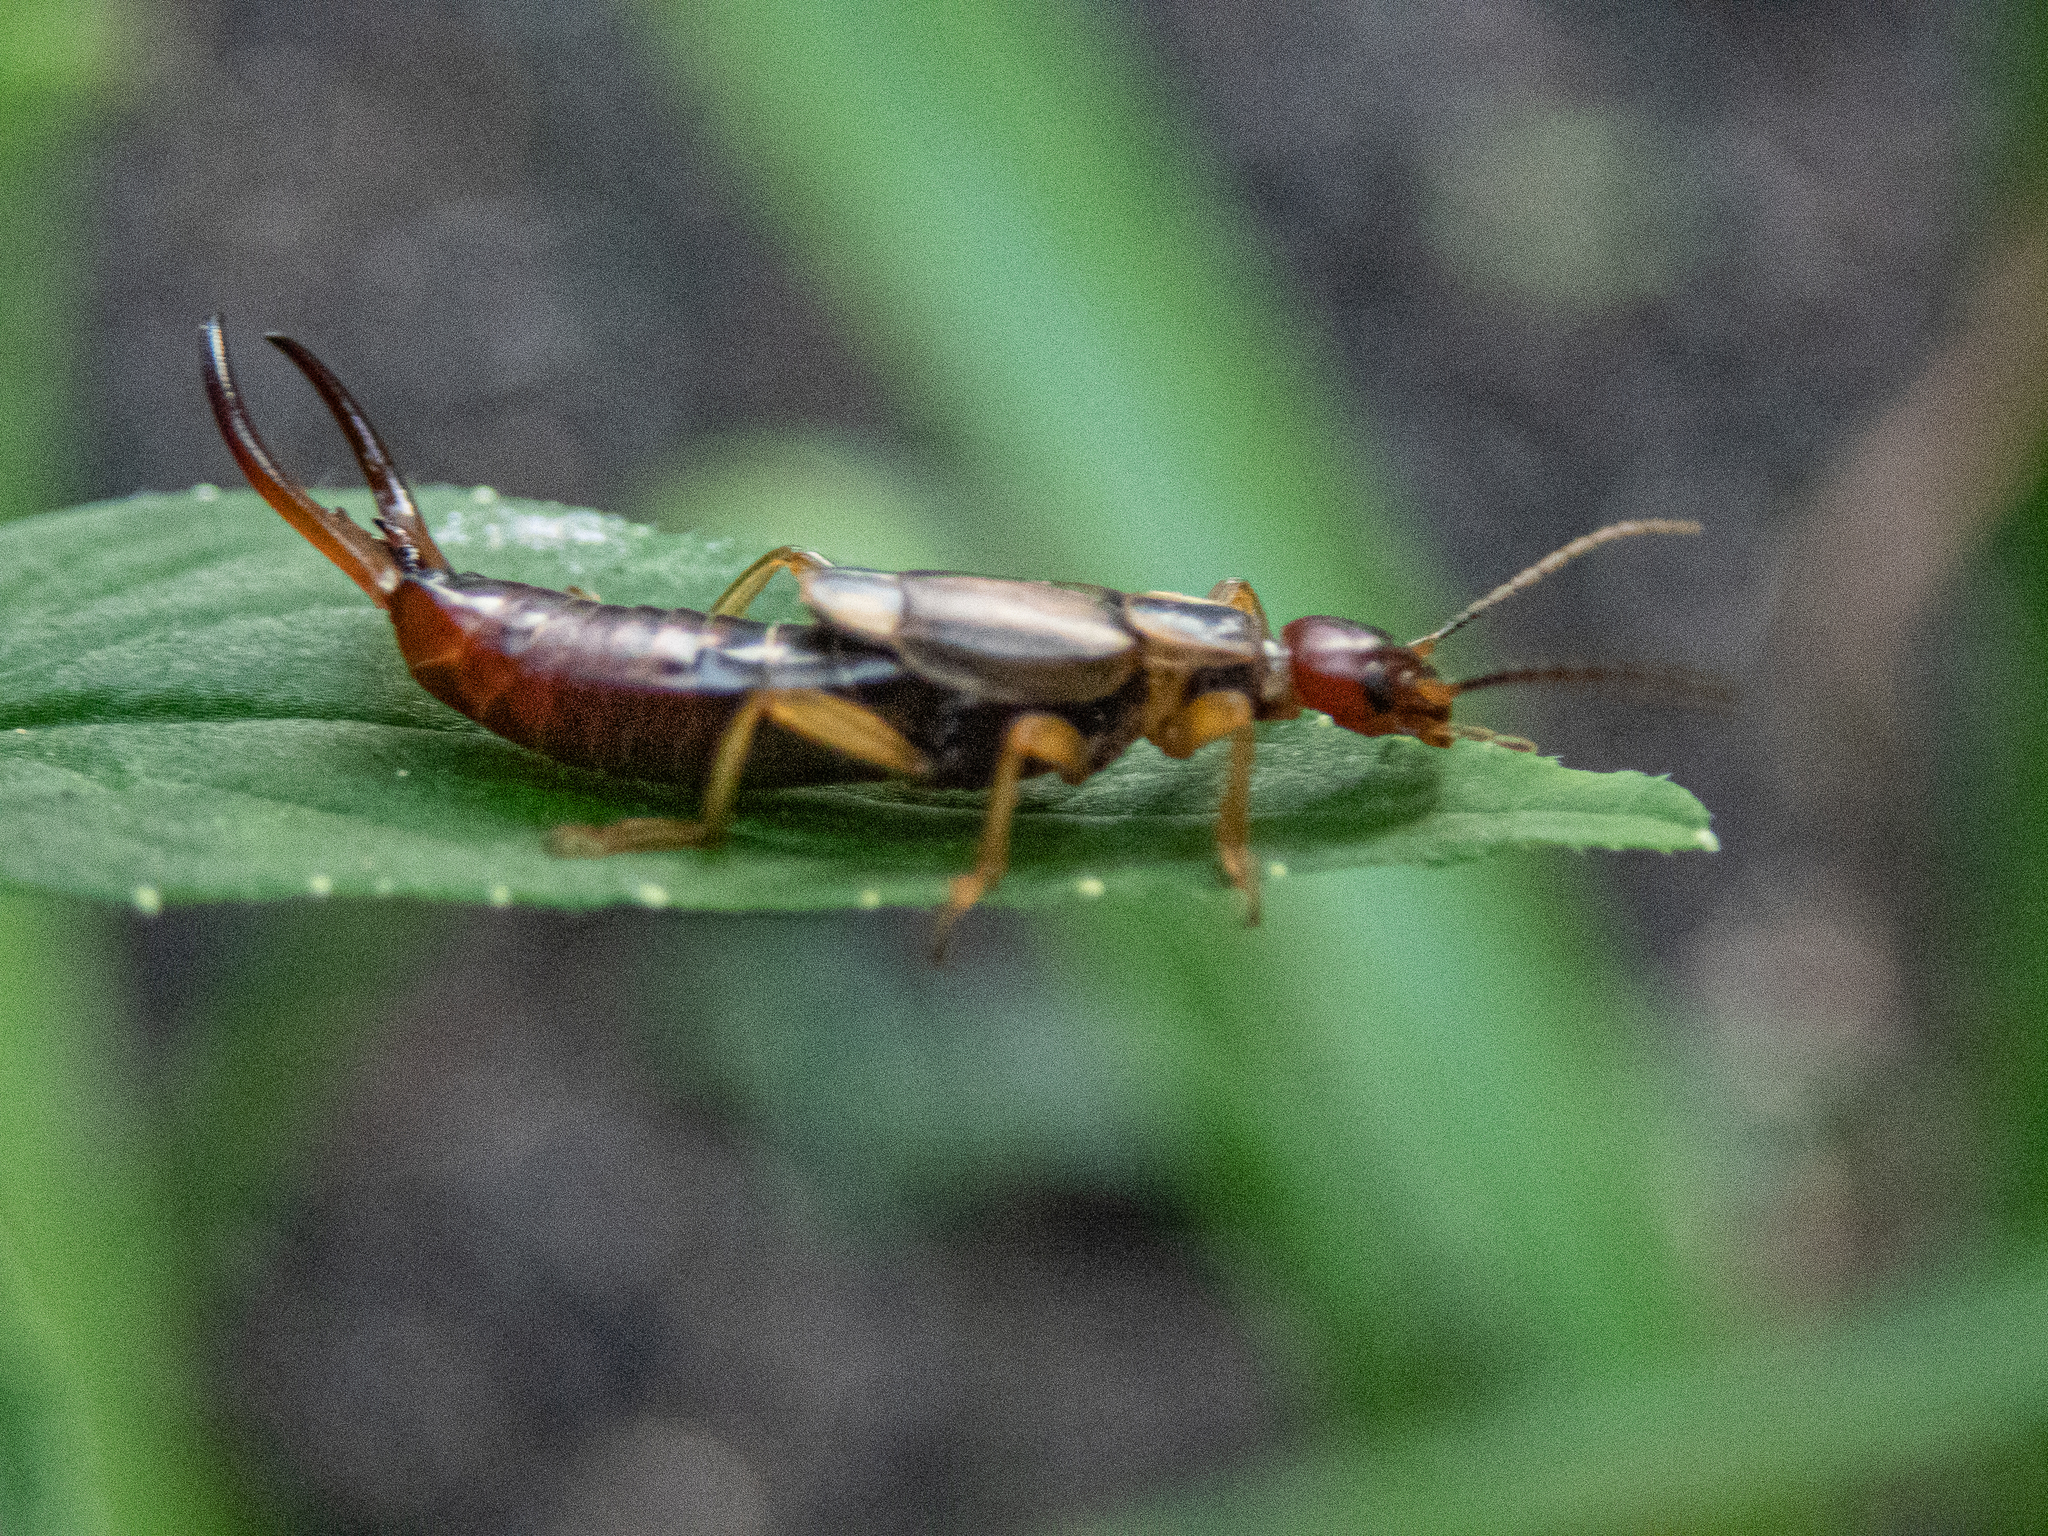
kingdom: Animalia
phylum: Arthropoda
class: Insecta
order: Dermaptera
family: Forficulidae
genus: Forficula
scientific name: Forficula
